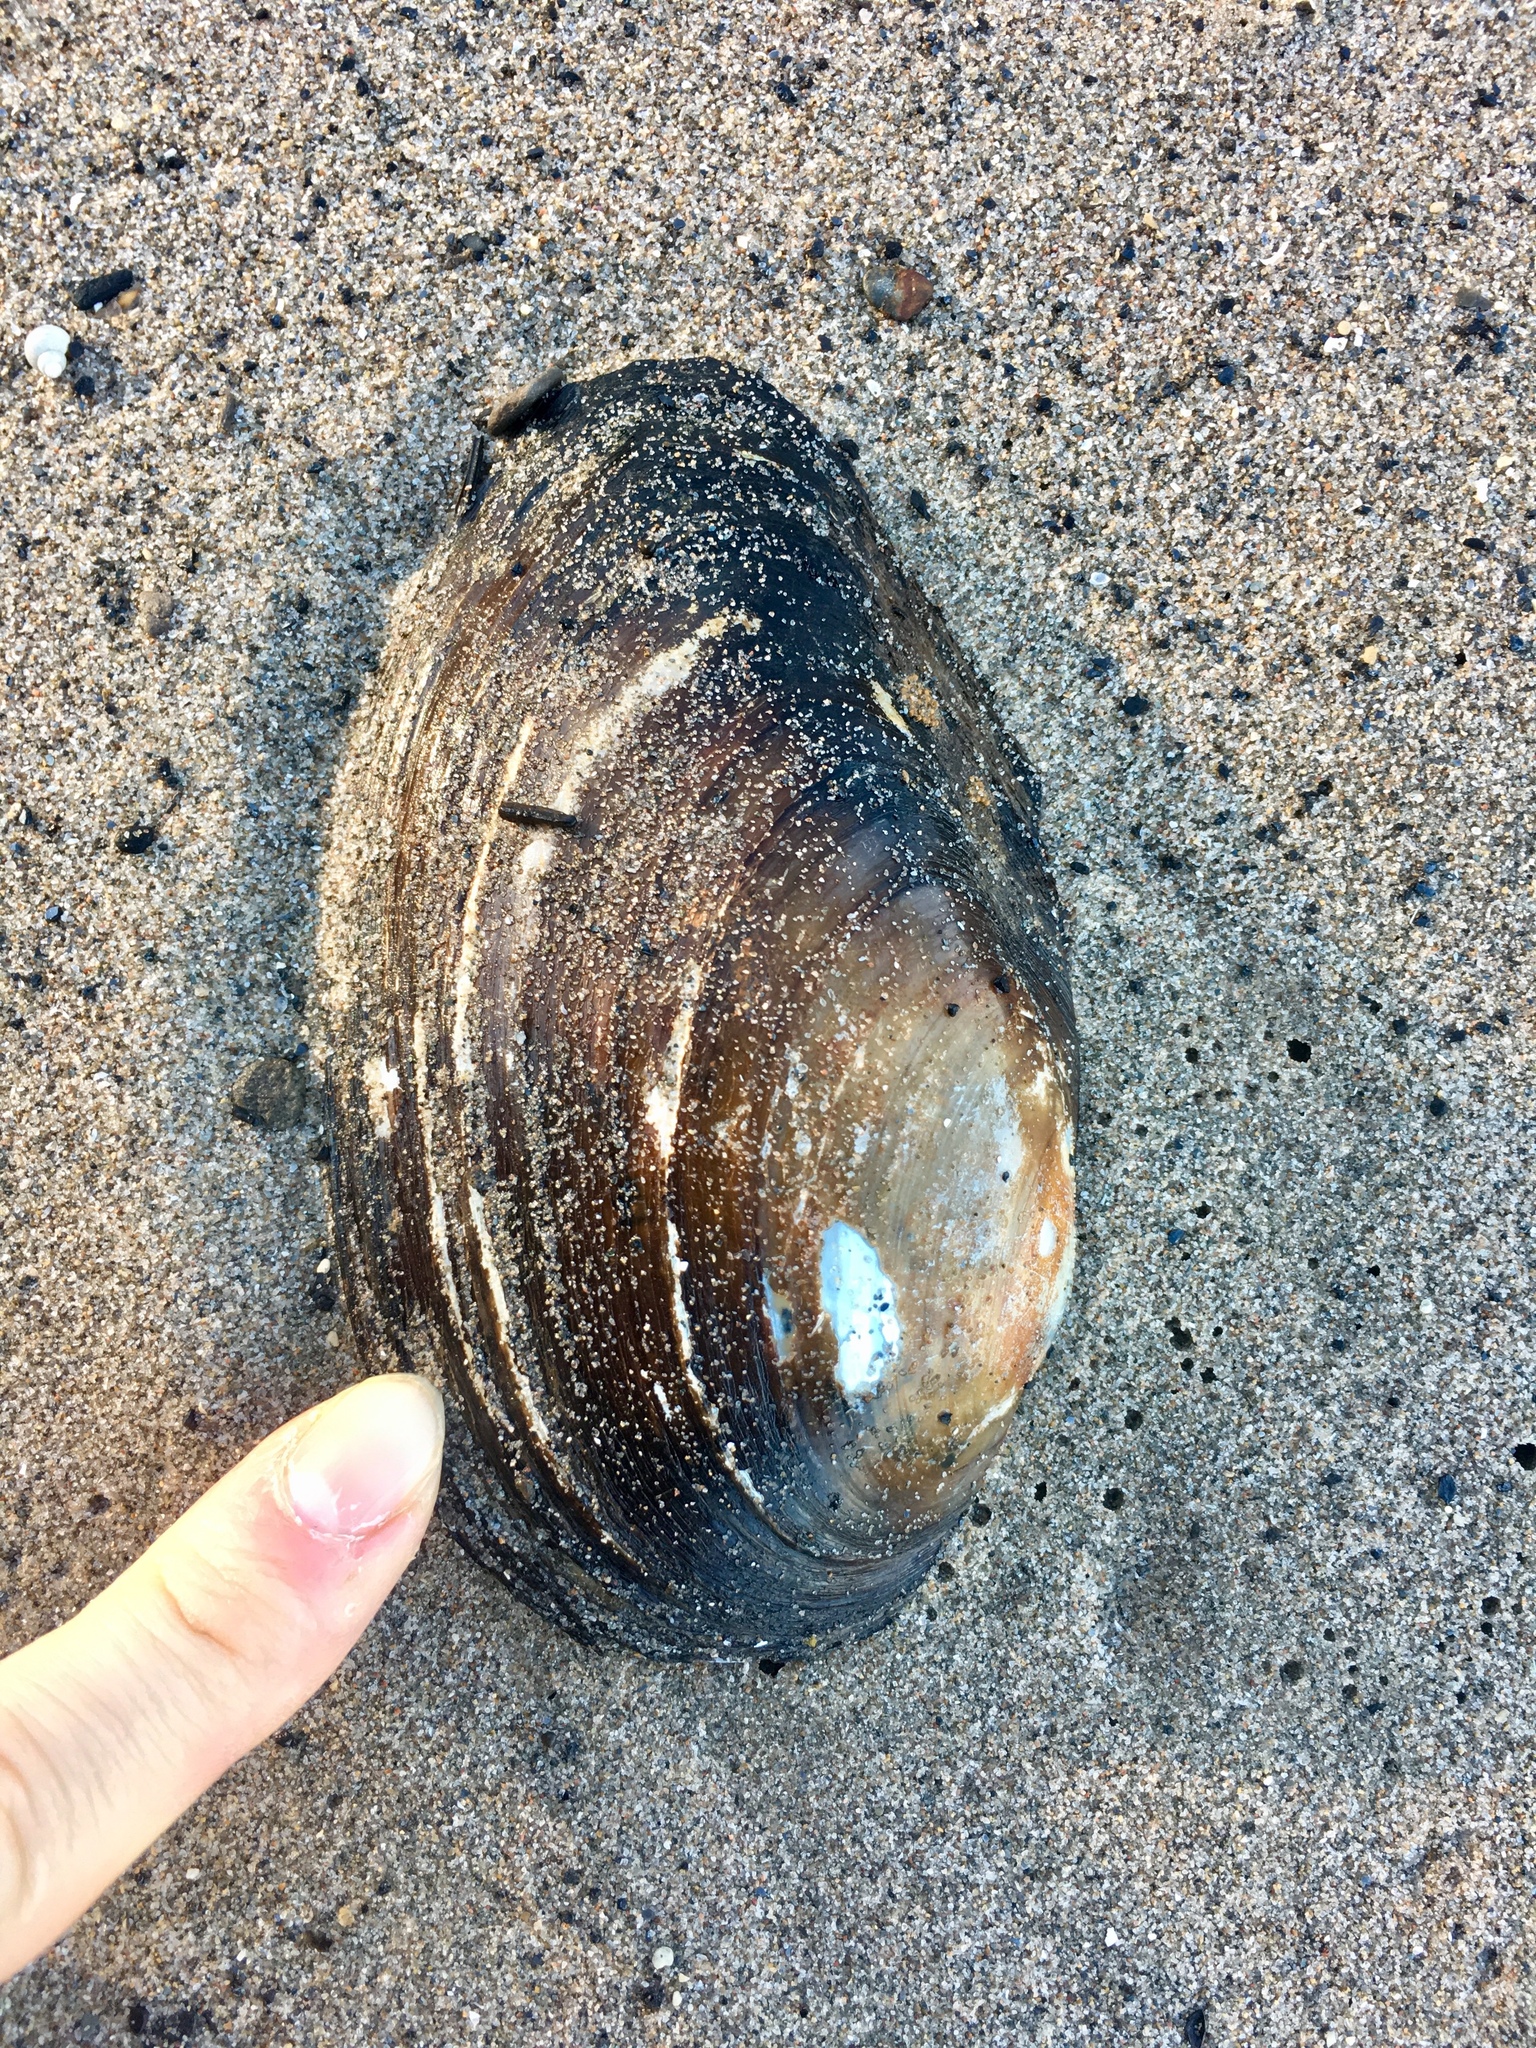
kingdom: Animalia
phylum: Mollusca
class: Bivalvia
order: Unionida
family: Unionidae
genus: Anodonta
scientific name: Anodonta anatina
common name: Duck mussel
